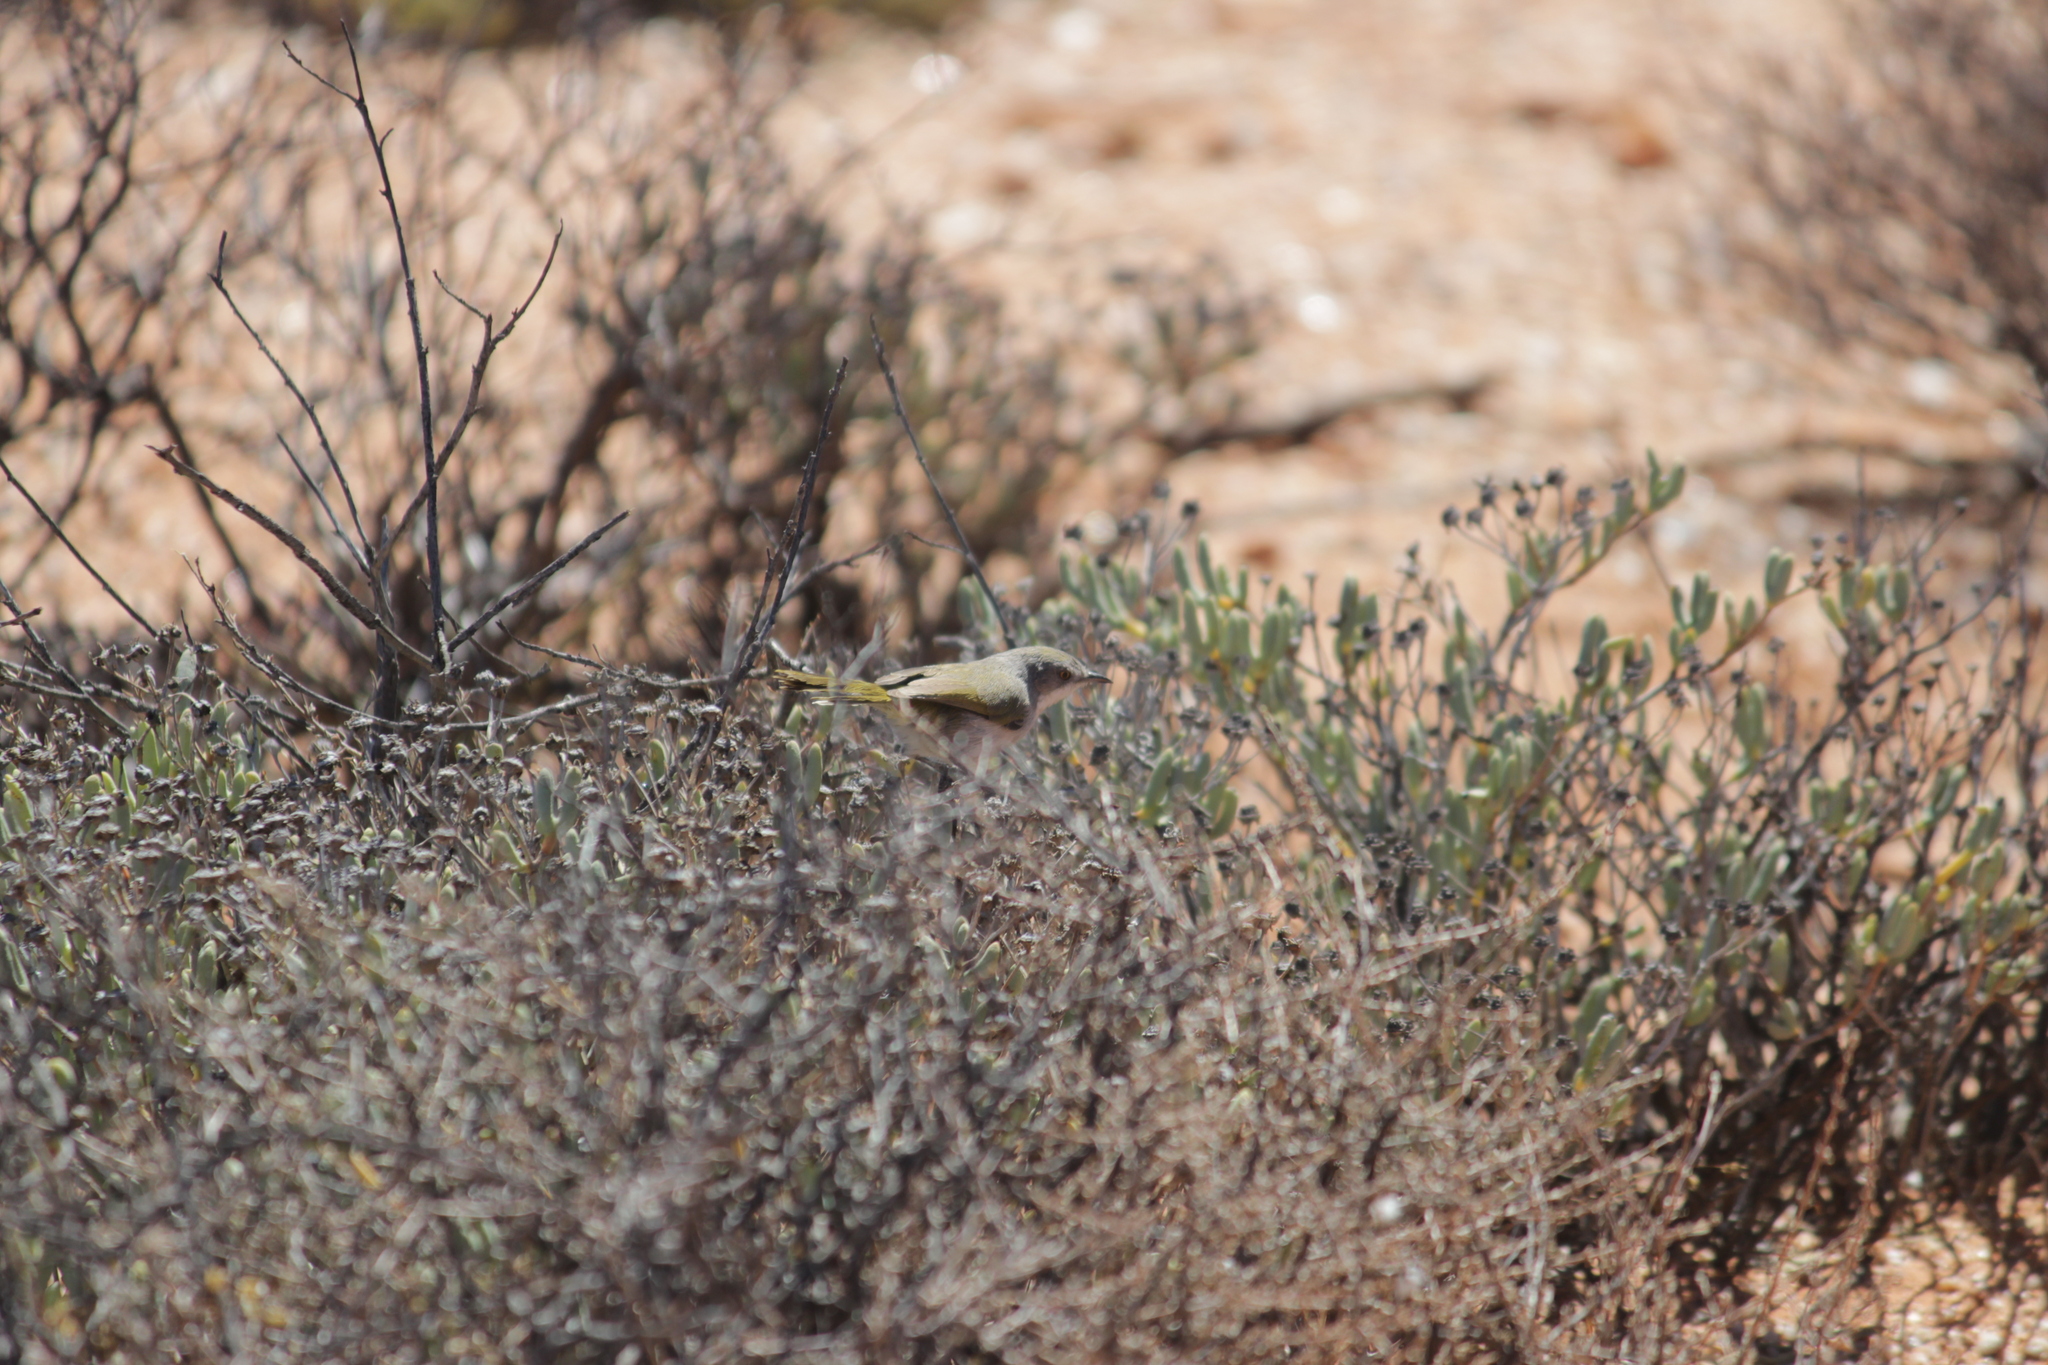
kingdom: Animalia
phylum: Chordata
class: Aves
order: Passeriformes
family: Cisticolidae
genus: Eremomela
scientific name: Eremomela gregalis
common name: Karoo eremomela
